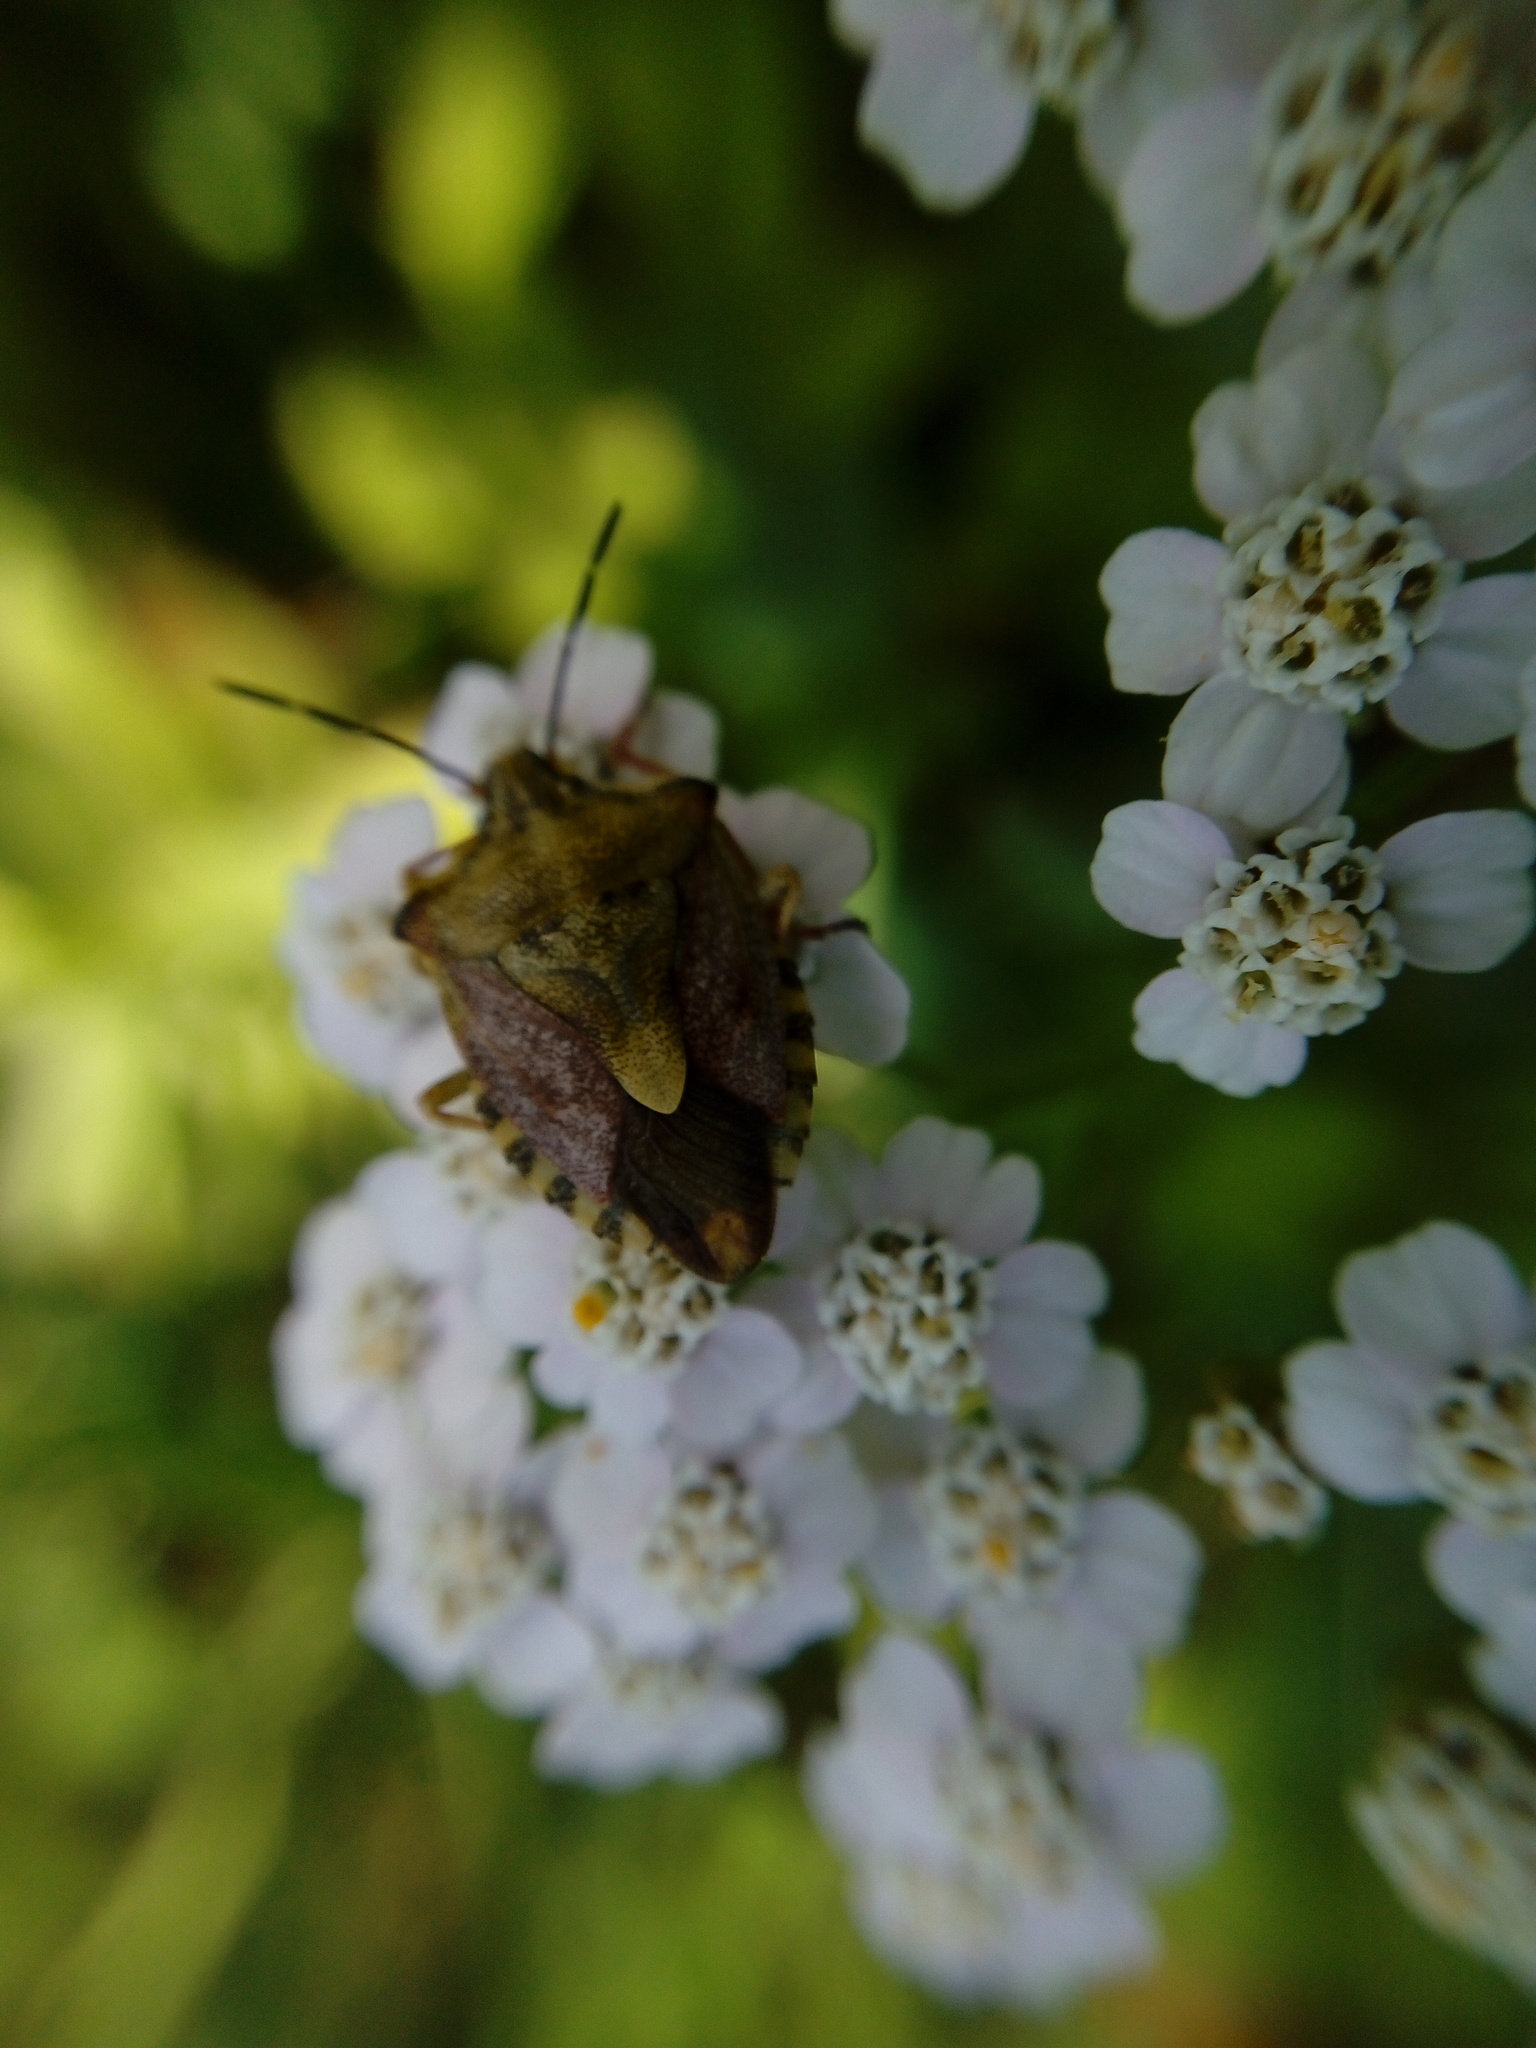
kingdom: Animalia
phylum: Arthropoda
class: Insecta
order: Hemiptera
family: Pentatomidae
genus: Carpocoris
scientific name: Carpocoris purpureipennis
